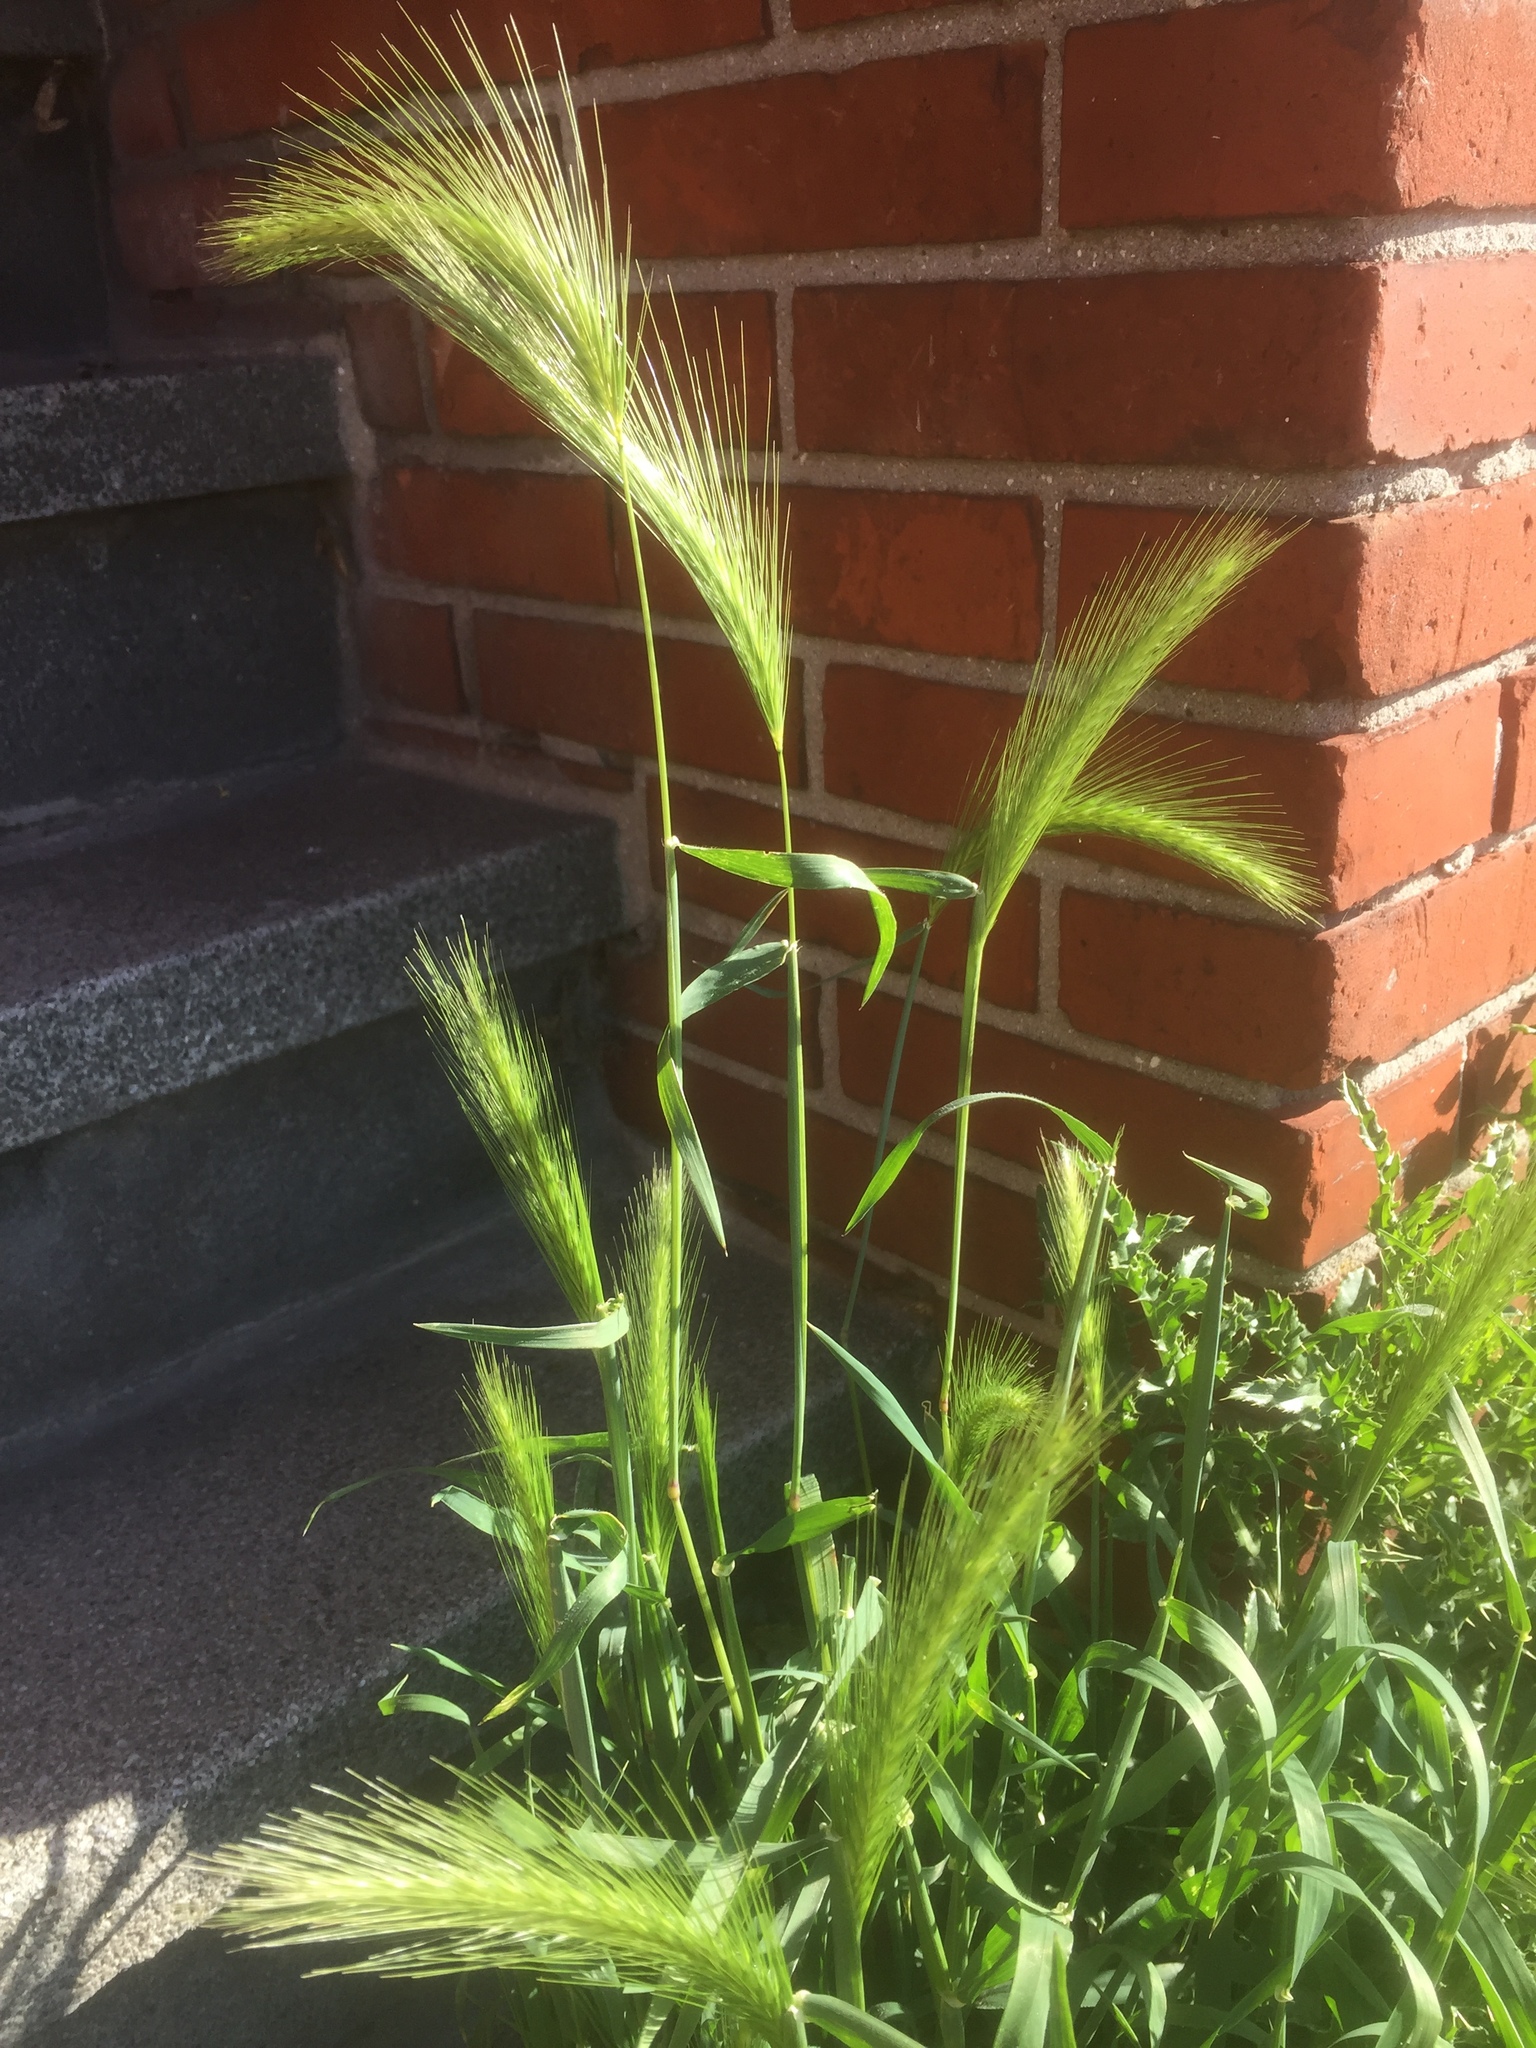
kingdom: Plantae
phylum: Tracheophyta
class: Liliopsida
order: Poales
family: Poaceae
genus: Hordeum
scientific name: Hordeum murinum
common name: Wall barley
